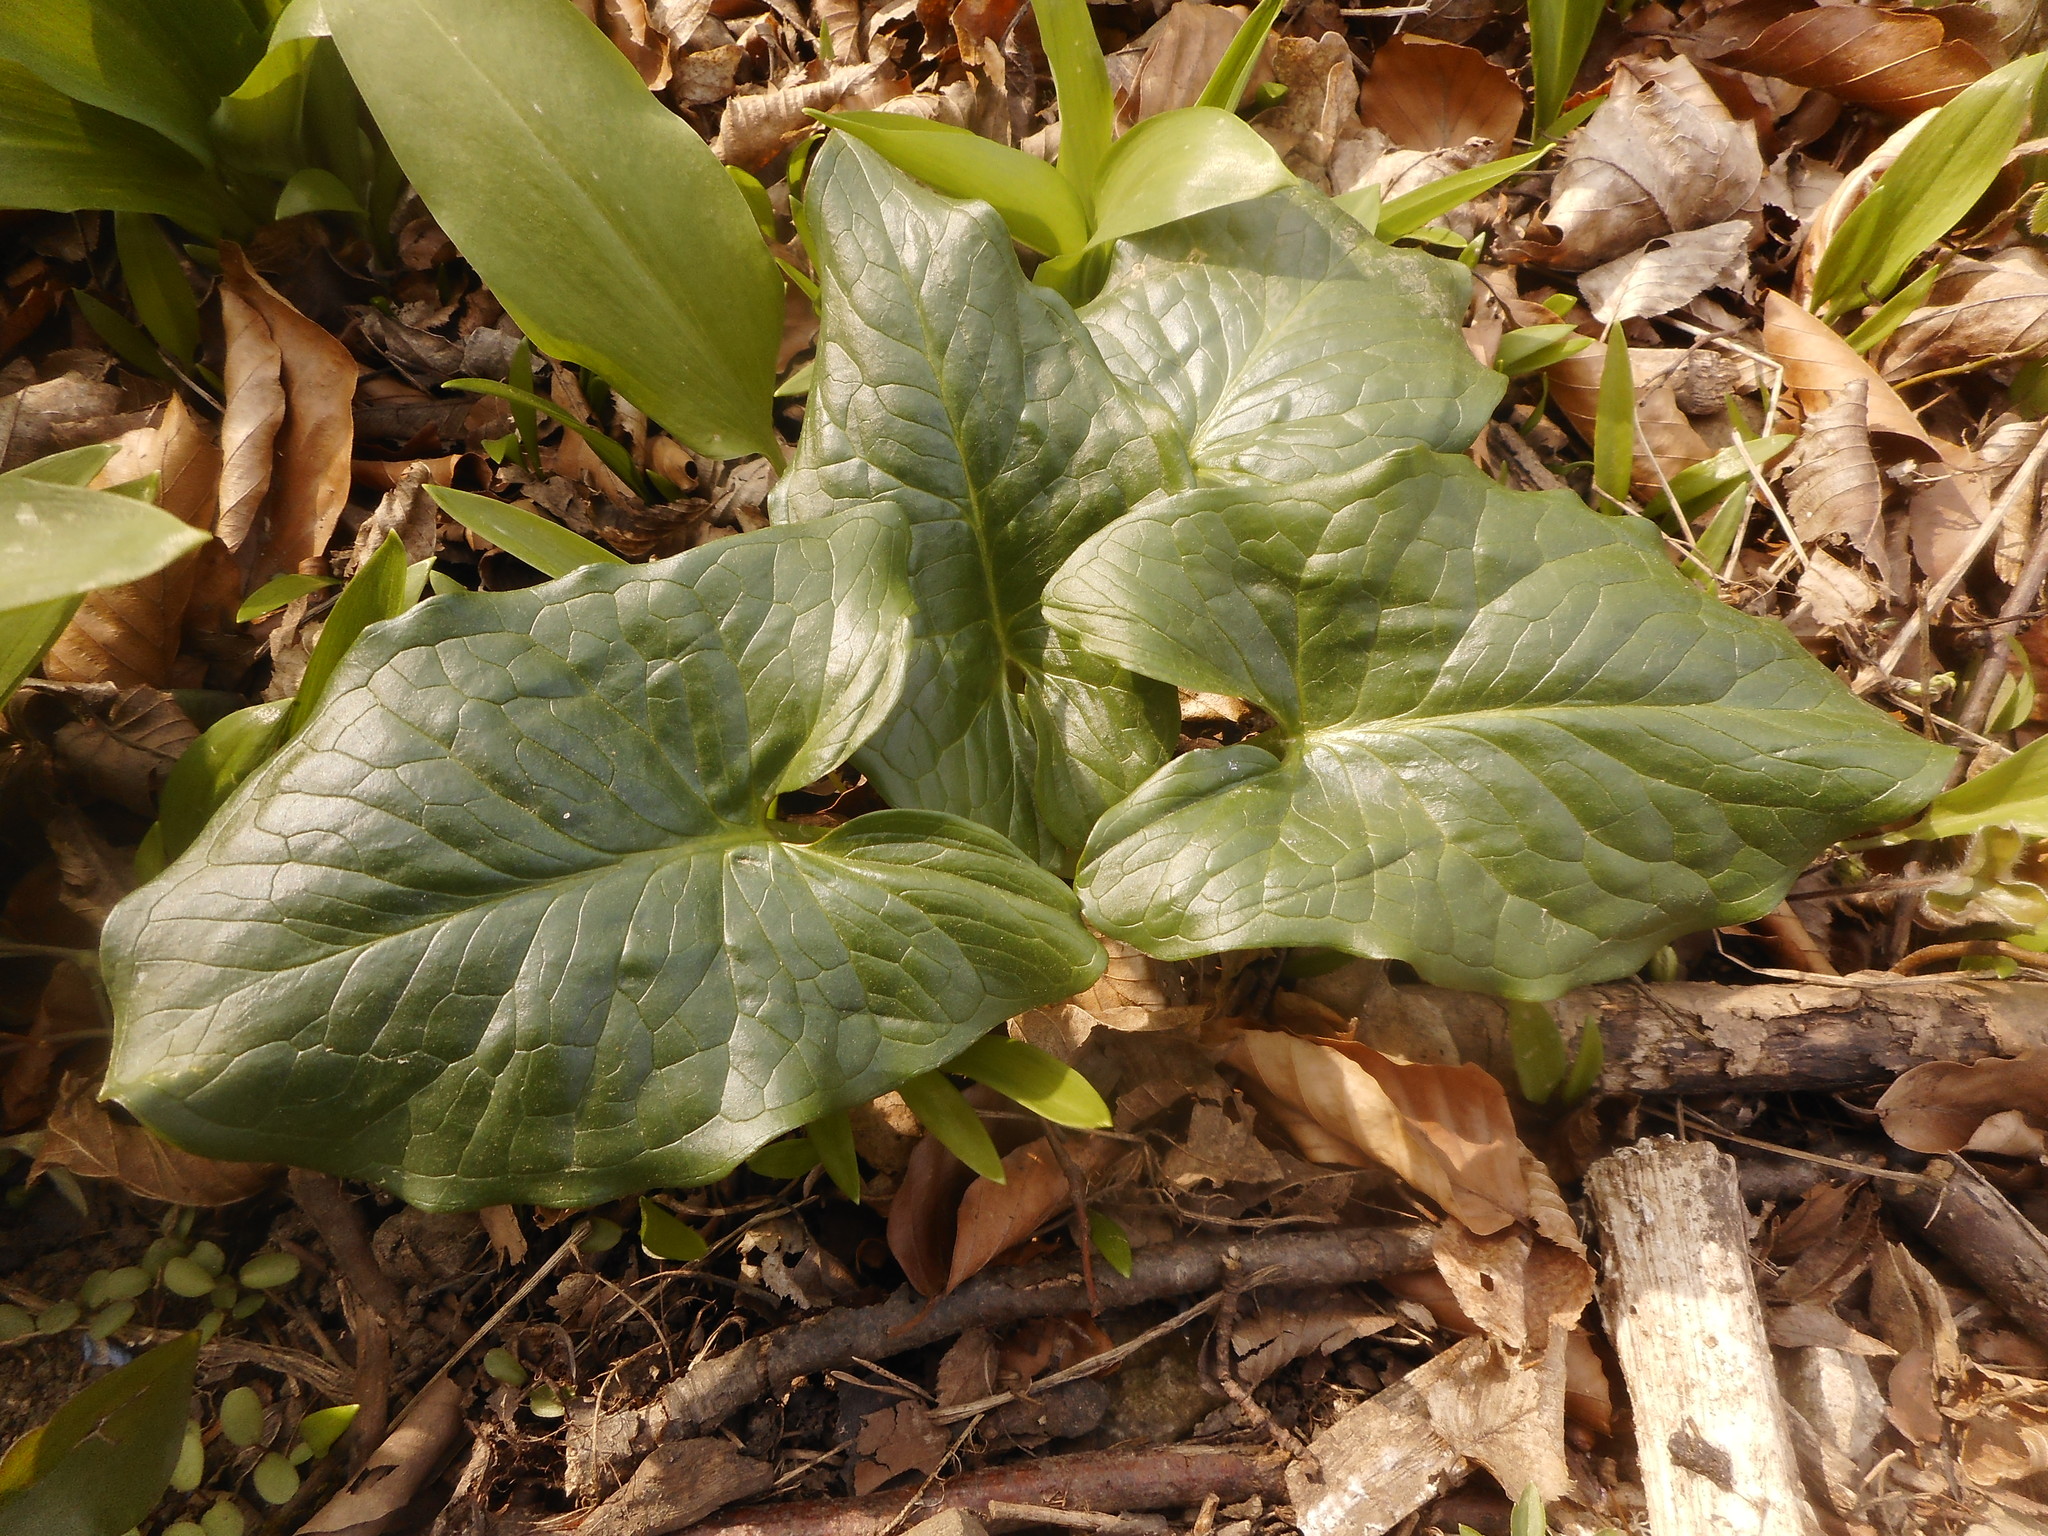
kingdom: Plantae
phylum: Tracheophyta
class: Liliopsida
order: Alismatales
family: Araceae
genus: Arum
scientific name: Arum cylindraceum
